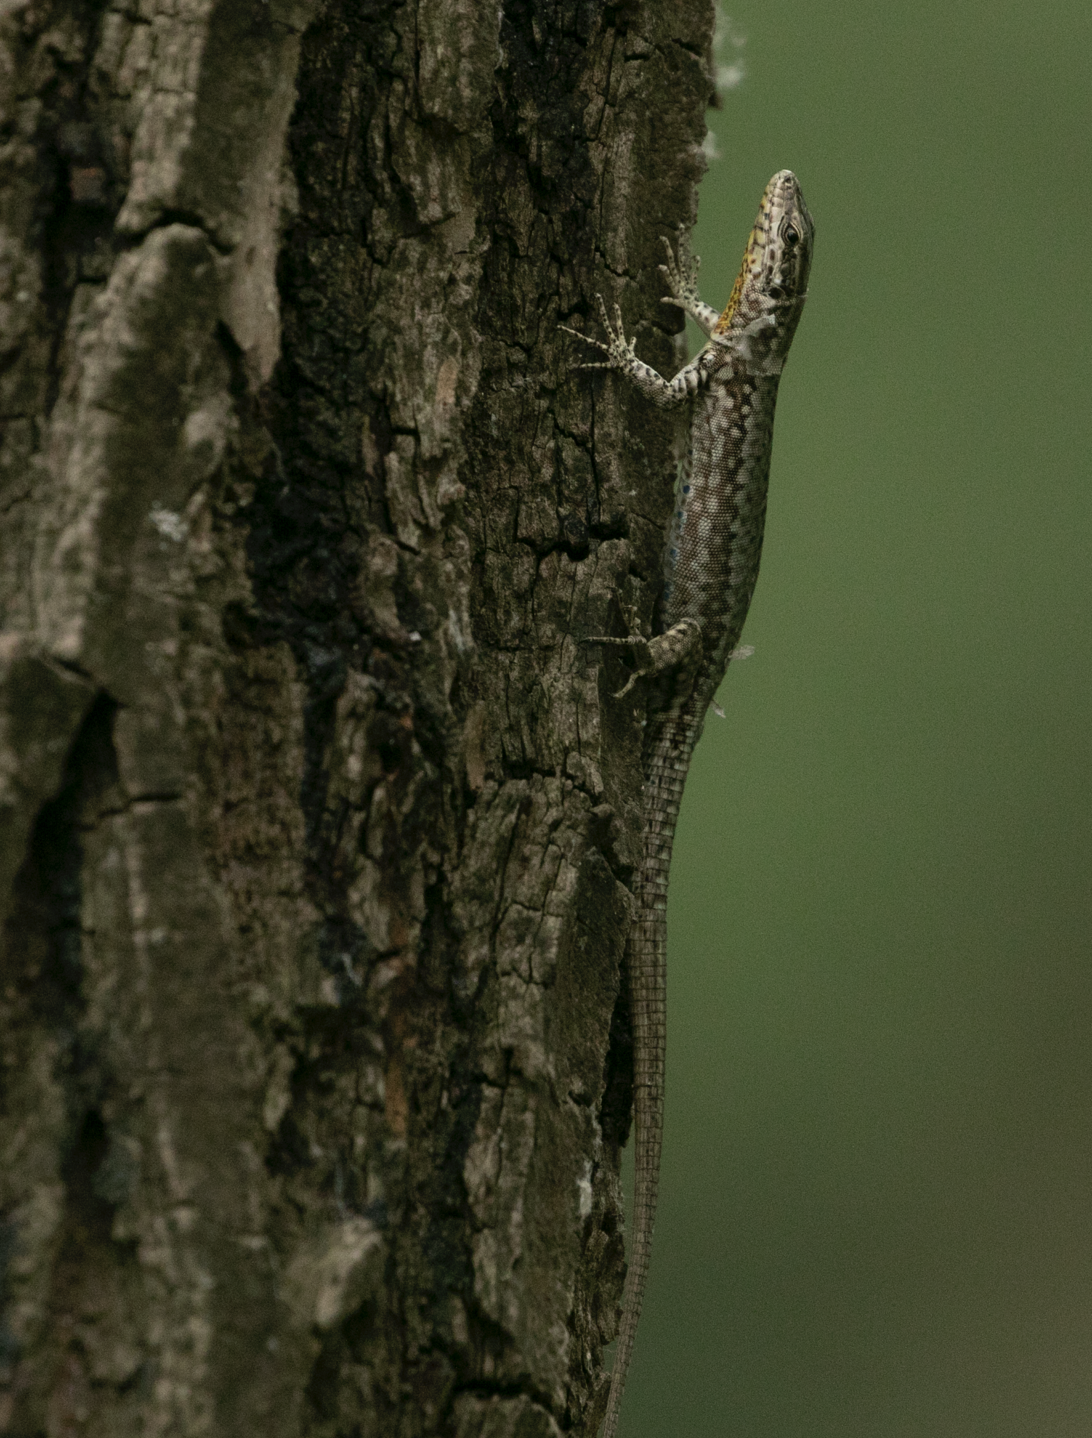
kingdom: Animalia
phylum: Chordata
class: Squamata
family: Lacertidae
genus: Podarcis
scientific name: Podarcis muralis
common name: Common wall lizard
